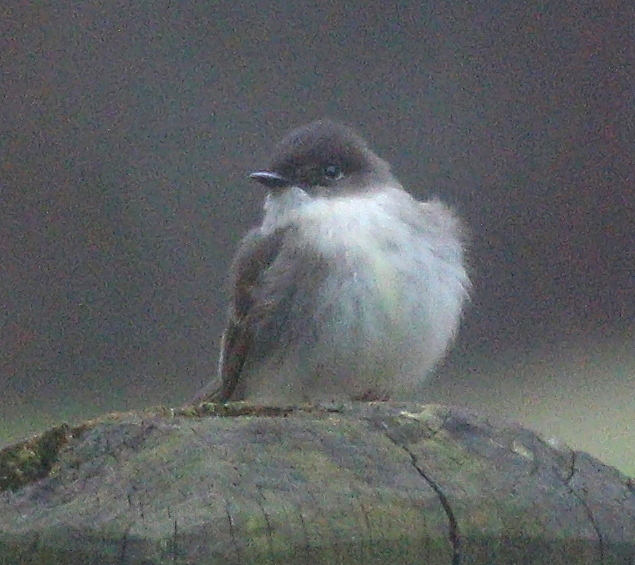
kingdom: Animalia
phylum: Chordata
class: Aves
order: Passeriformes
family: Tyrannidae
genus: Sayornis
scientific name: Sayornis phoebe
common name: Eastern phoebe
